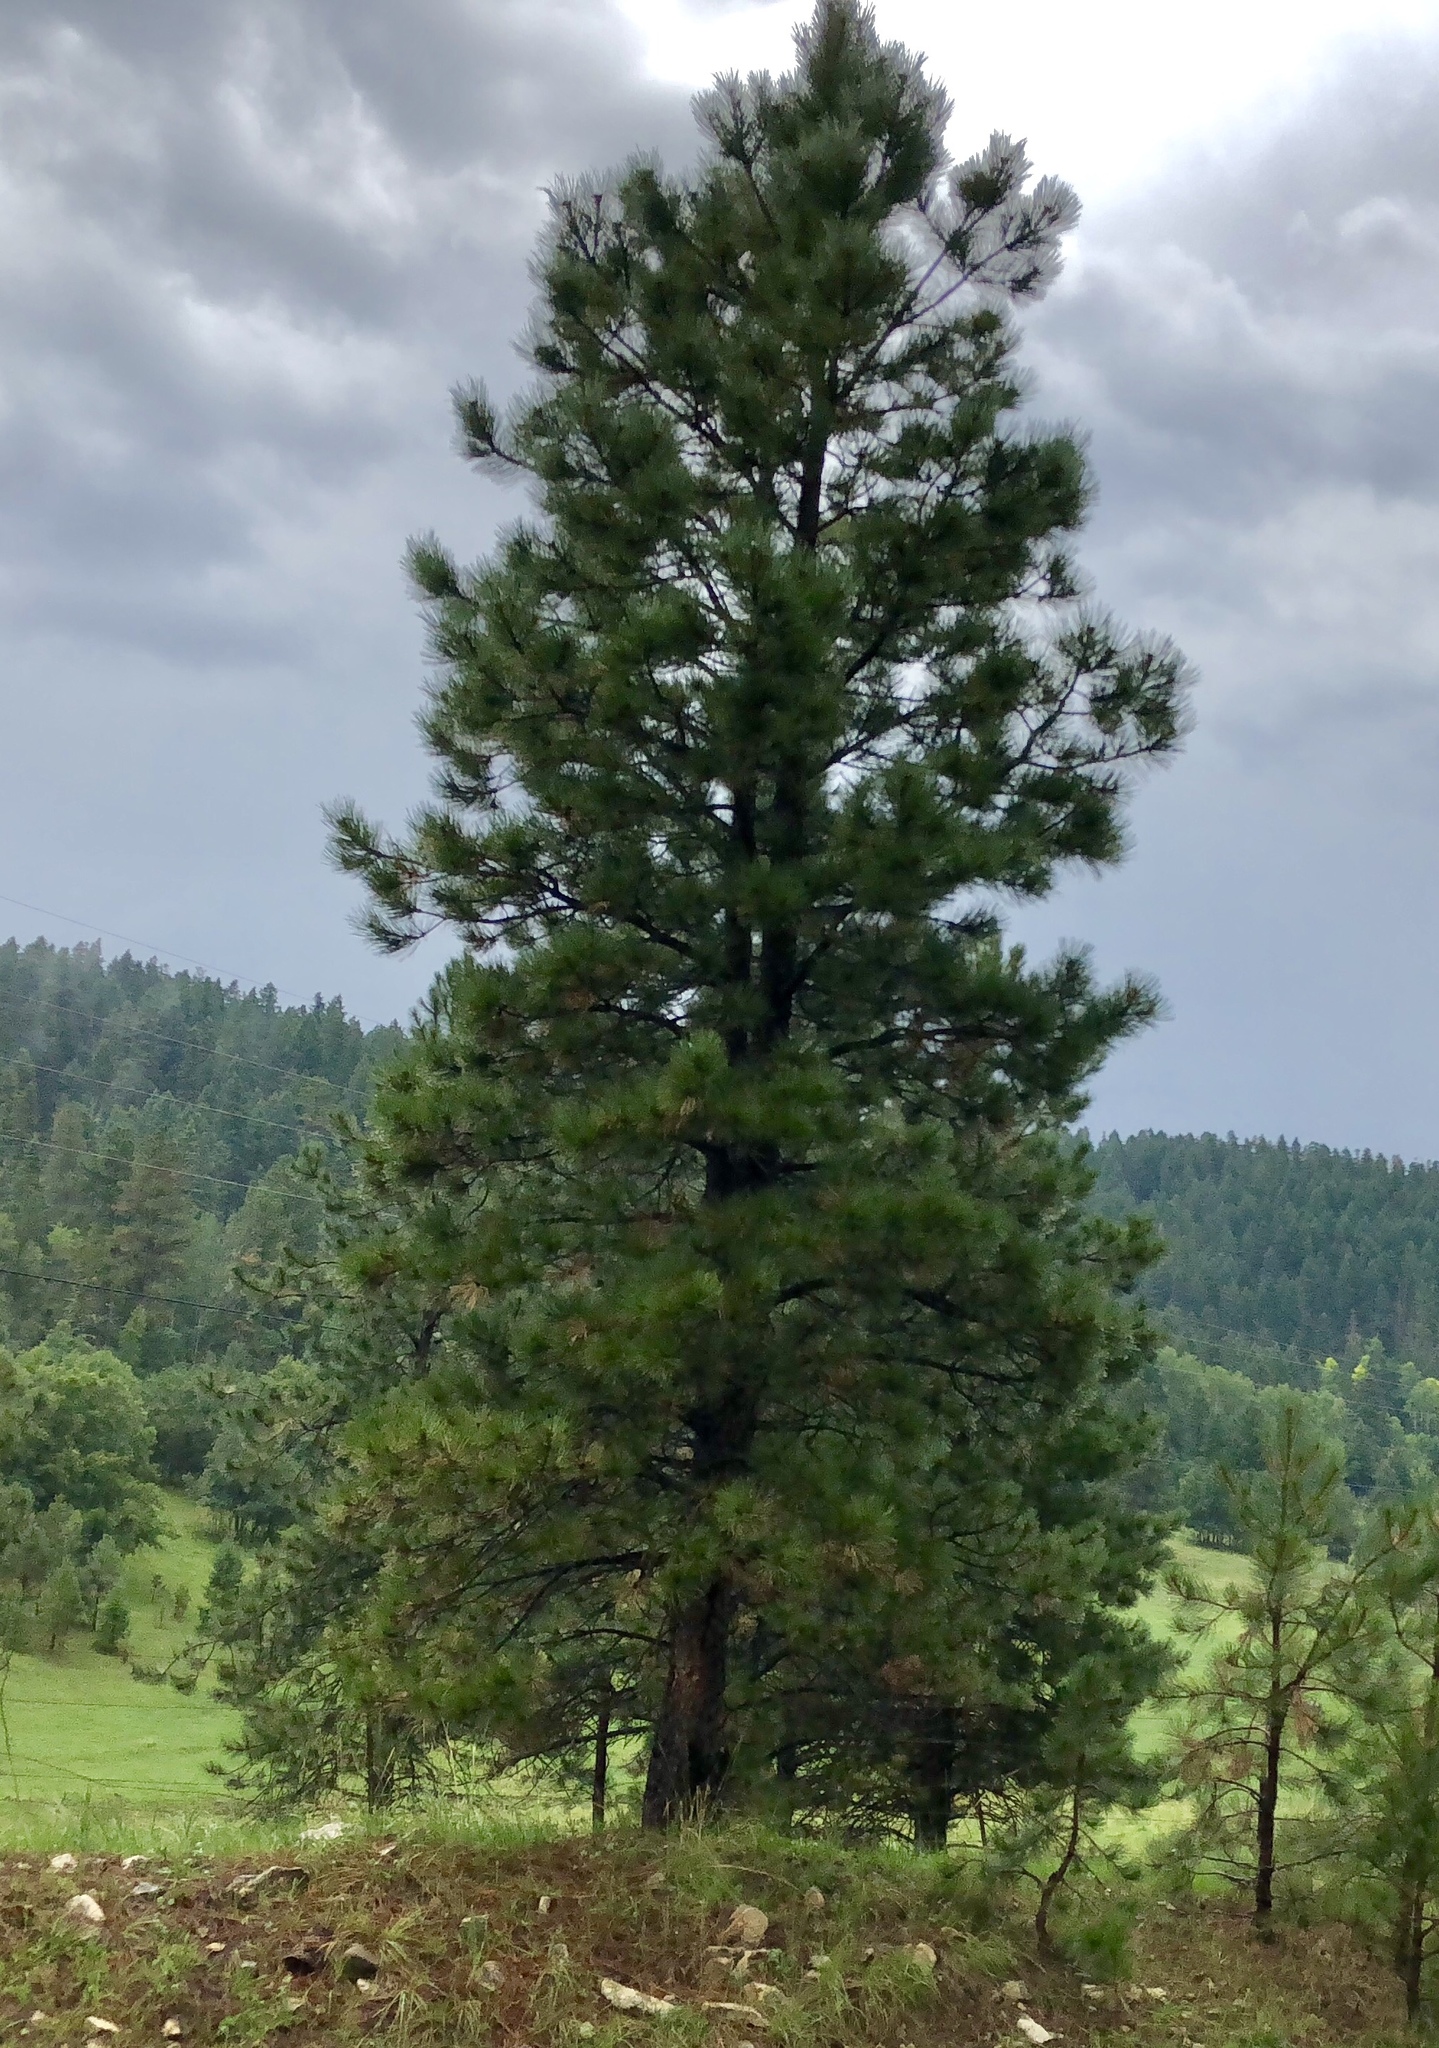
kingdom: Plantae
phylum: Tracheophyta
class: Pinopsida
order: Pinales
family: Pinaceae
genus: Pinus
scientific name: Pinus ponderosa
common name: Western yellow-pine
